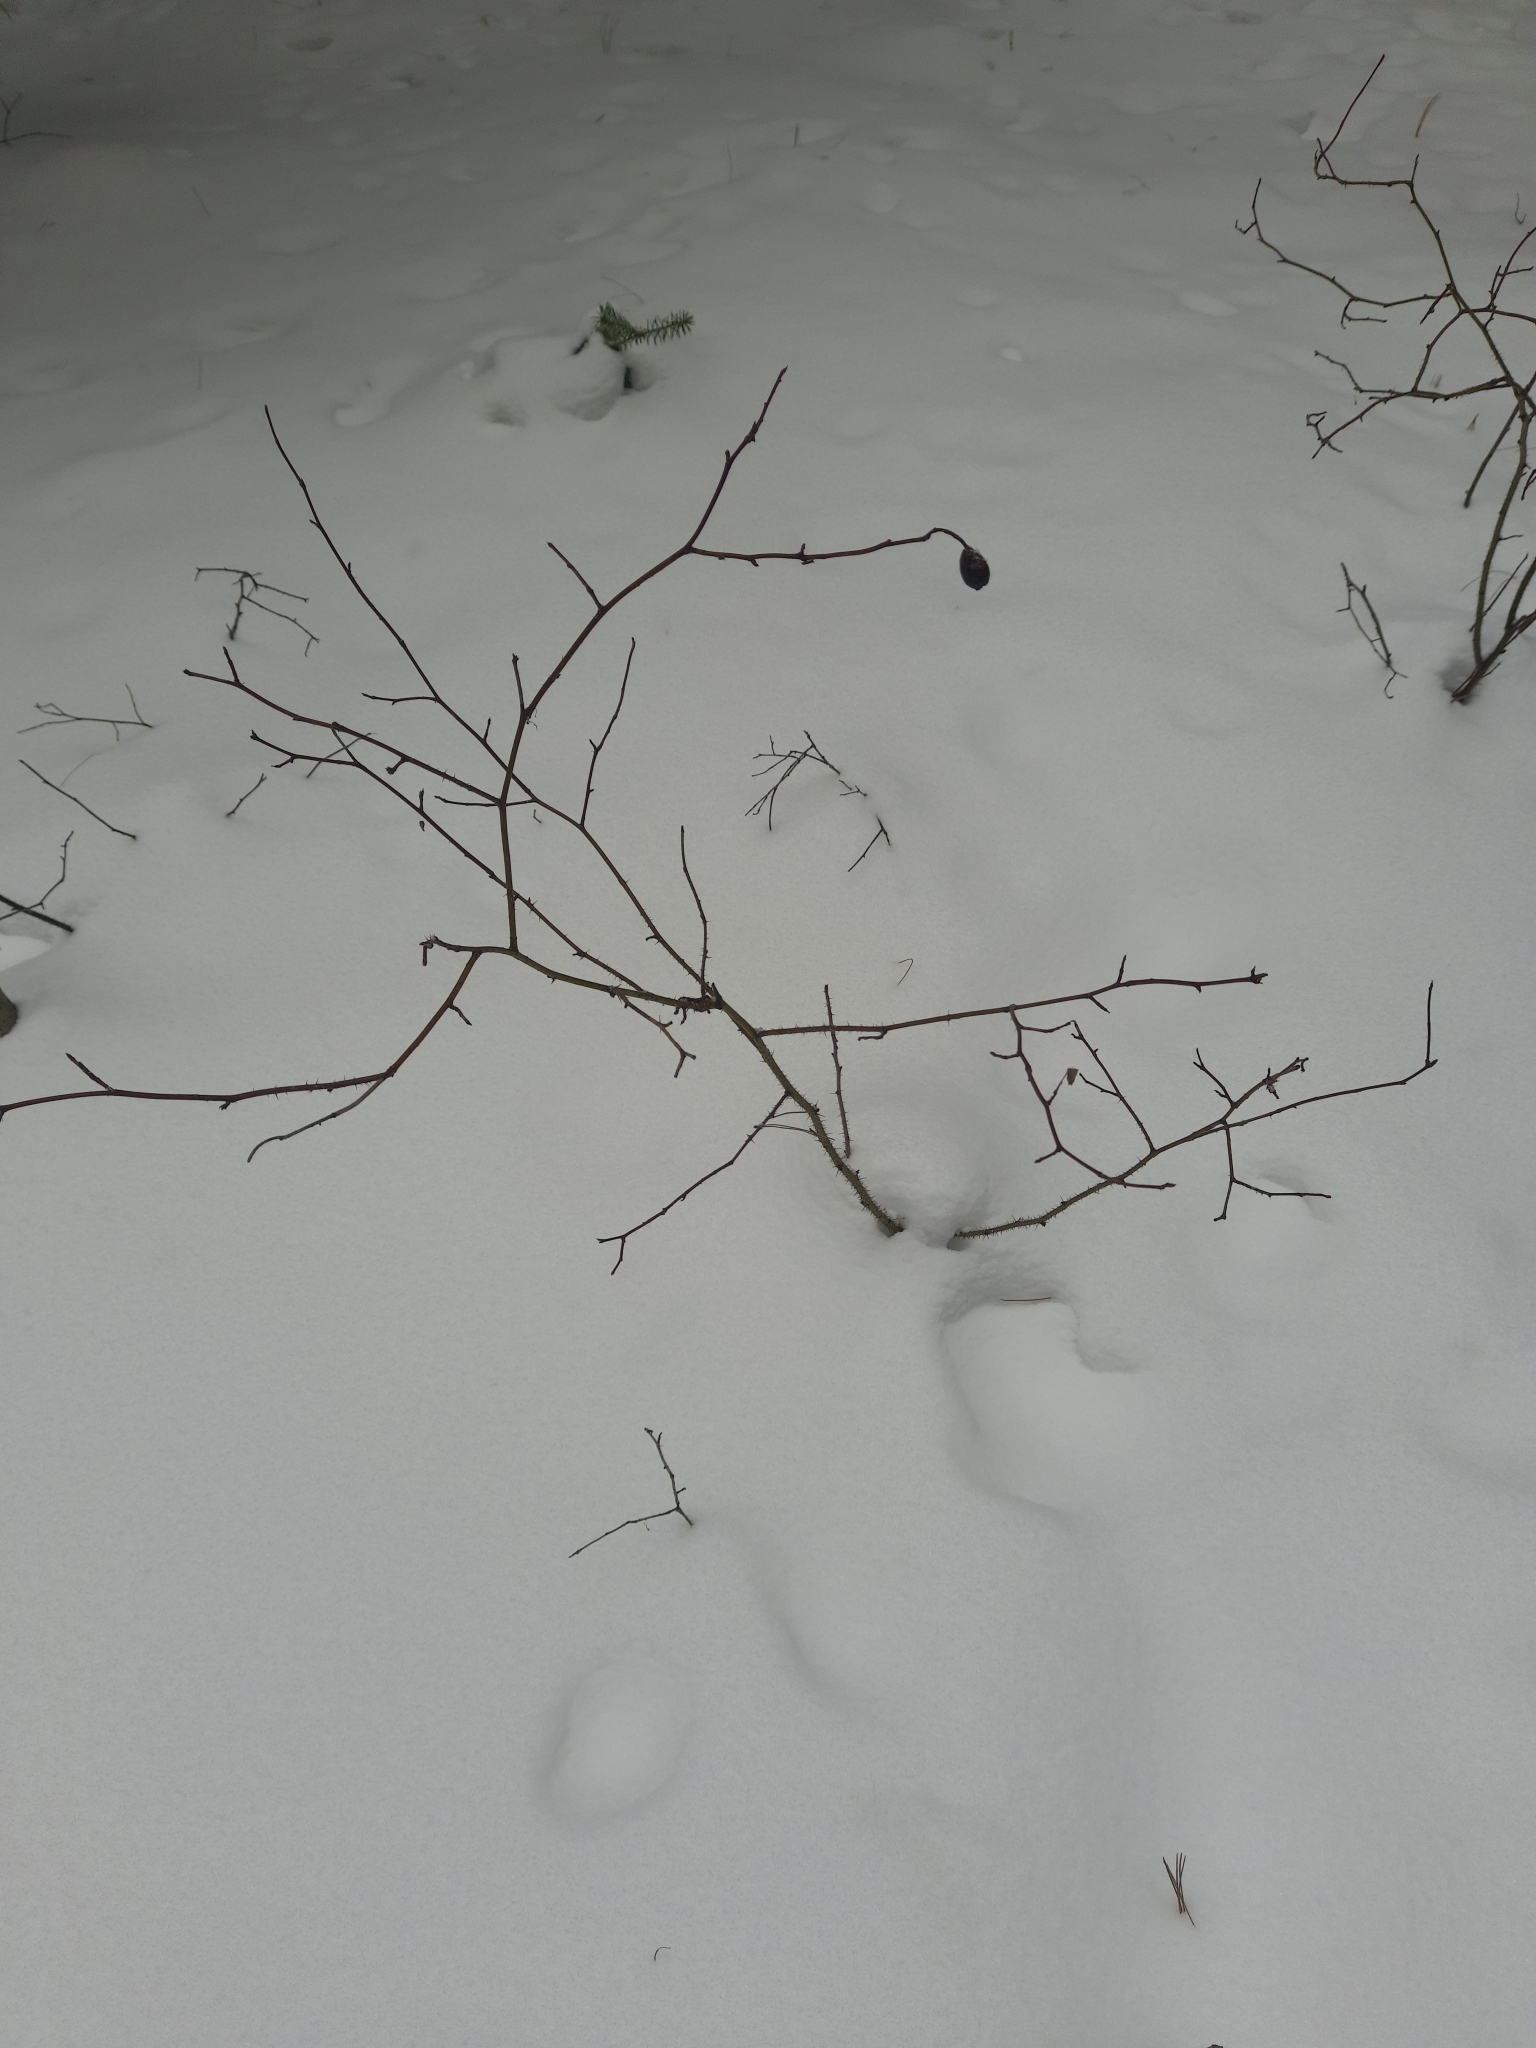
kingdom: Plantae
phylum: Tracheophyta
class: Magnoliopsida
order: Rosales
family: Rosaceae
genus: Rosa
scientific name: Rosa acicularis
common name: Prickly rose
